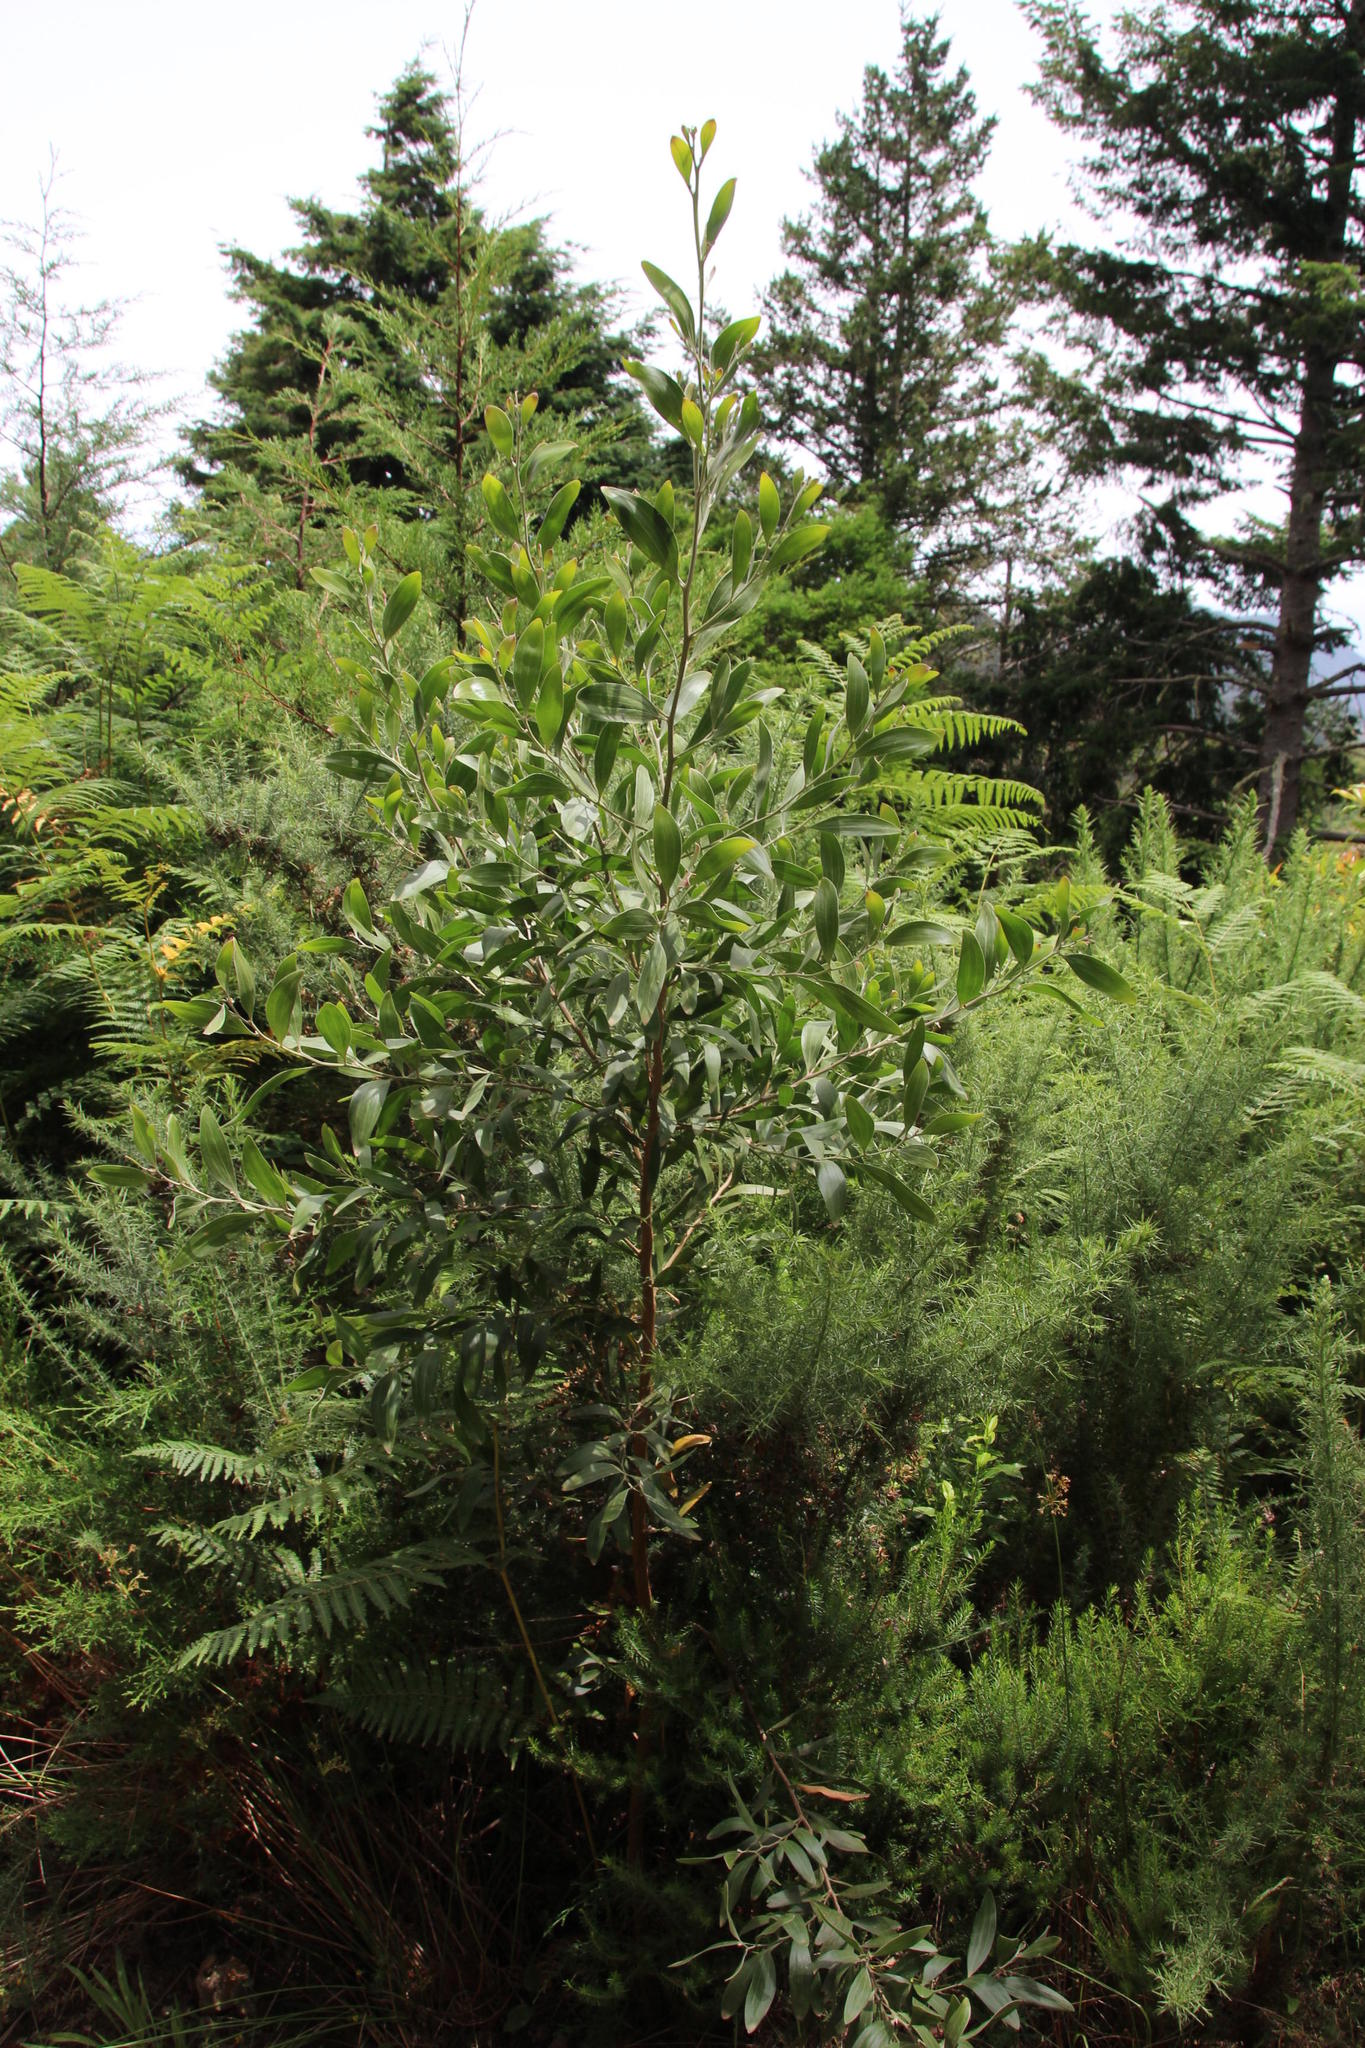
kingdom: Plantae
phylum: Tracheophyta
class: Magnoliopsida
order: Fabales
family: Fabaceae
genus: Acacia
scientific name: Acacia melanoxylon
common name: Blackwood
